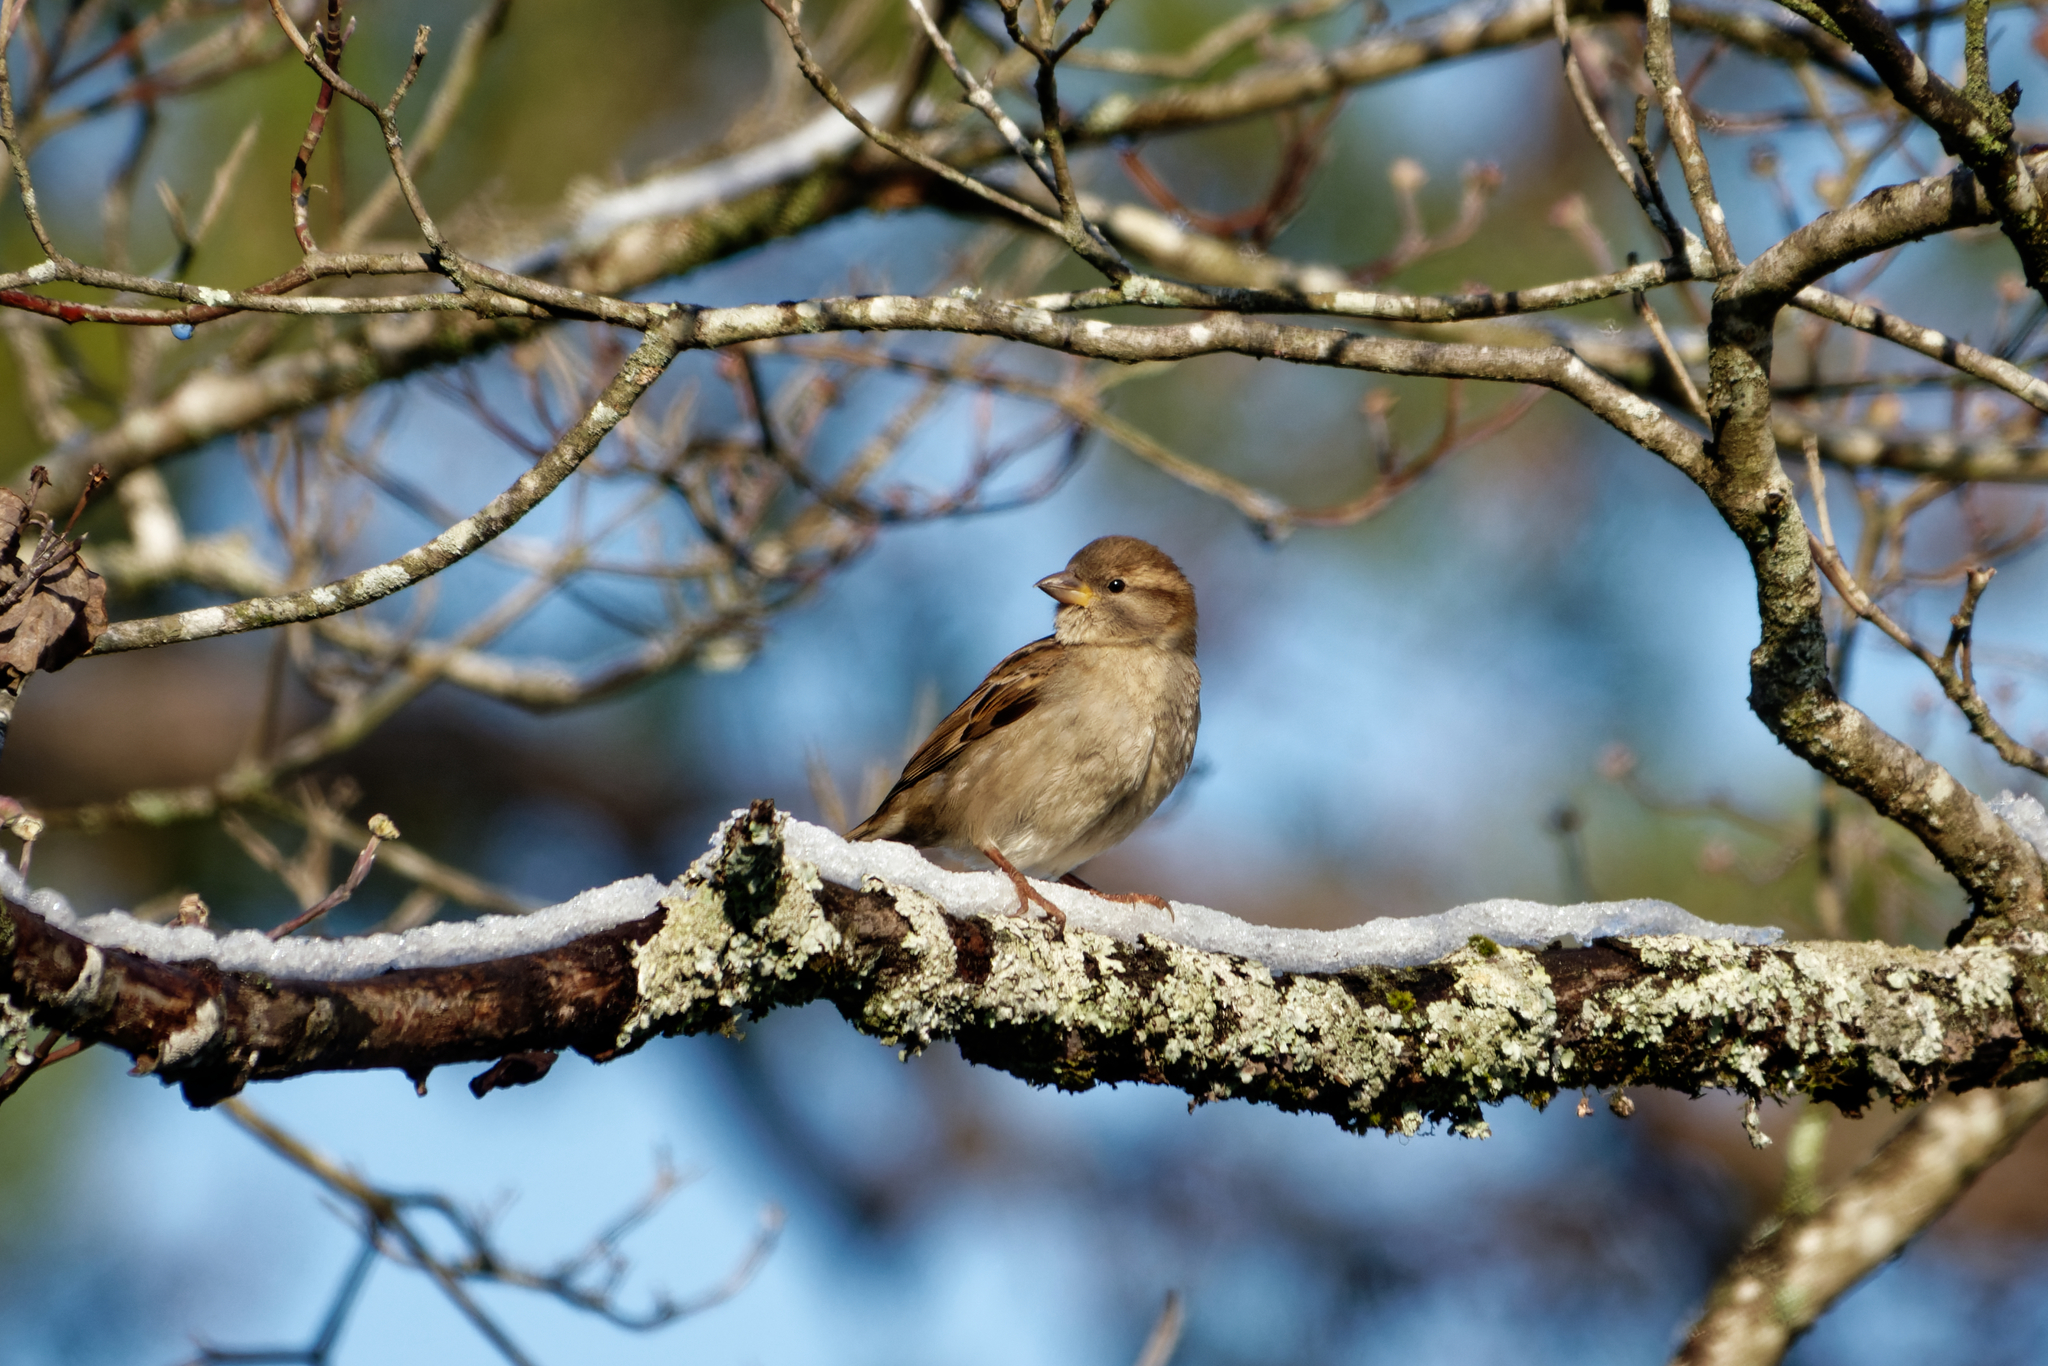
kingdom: Animalia
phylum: Chordata
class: Aves
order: Passeriformes
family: Passeridae
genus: Passer
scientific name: Passer domesticus
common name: House sparrow
